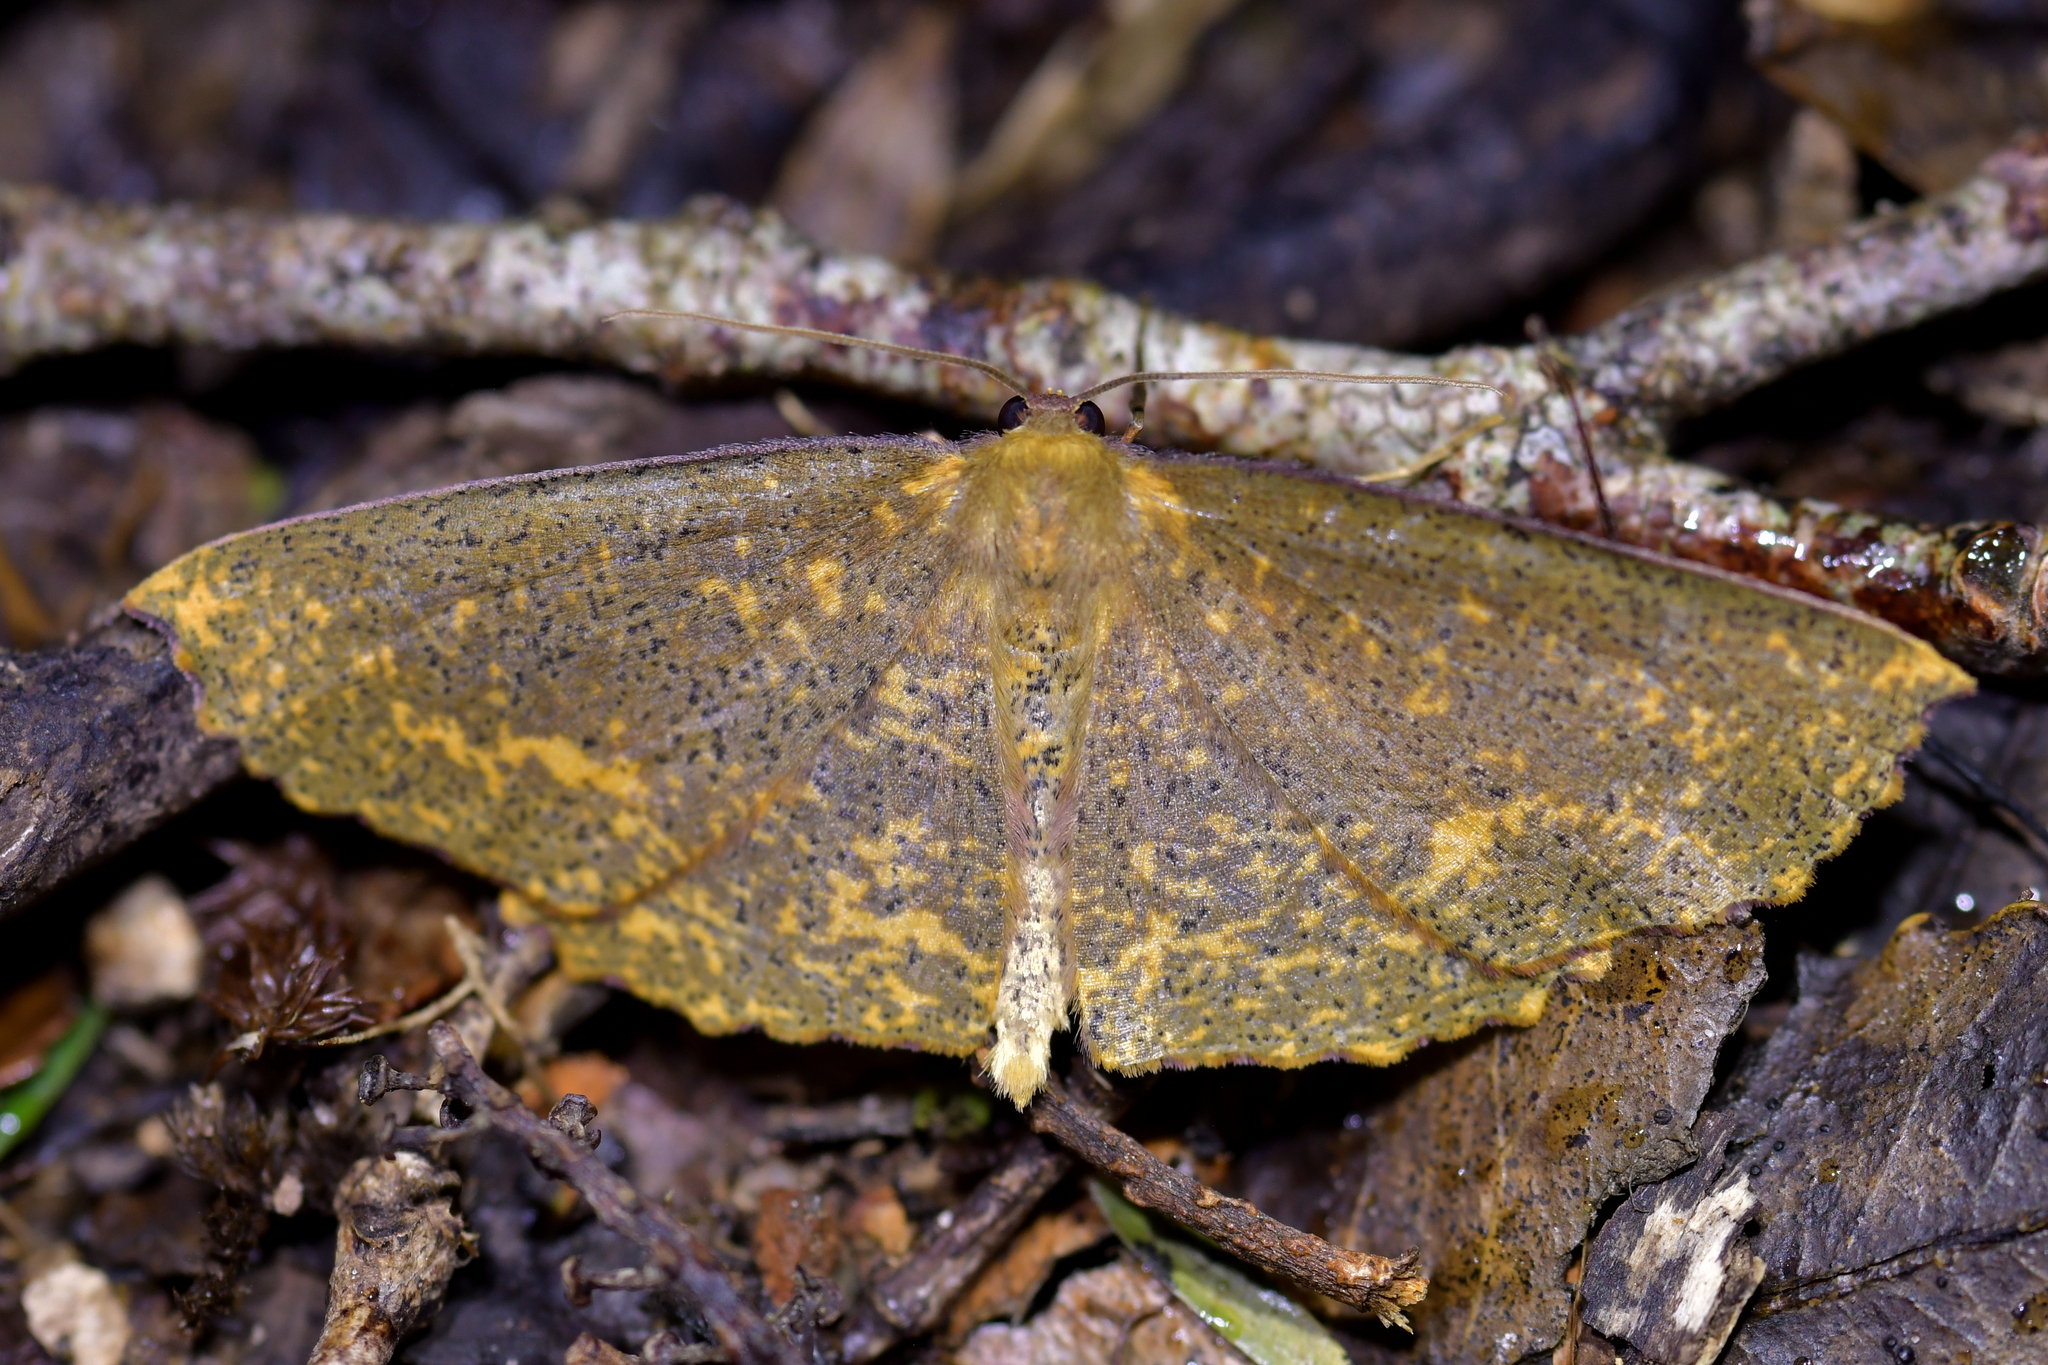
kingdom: Animalia
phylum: Arthropoda
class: Insecta
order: Lepidoptera
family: Geometridae
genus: Xyridacma
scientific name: Xyridacma alectoraria
